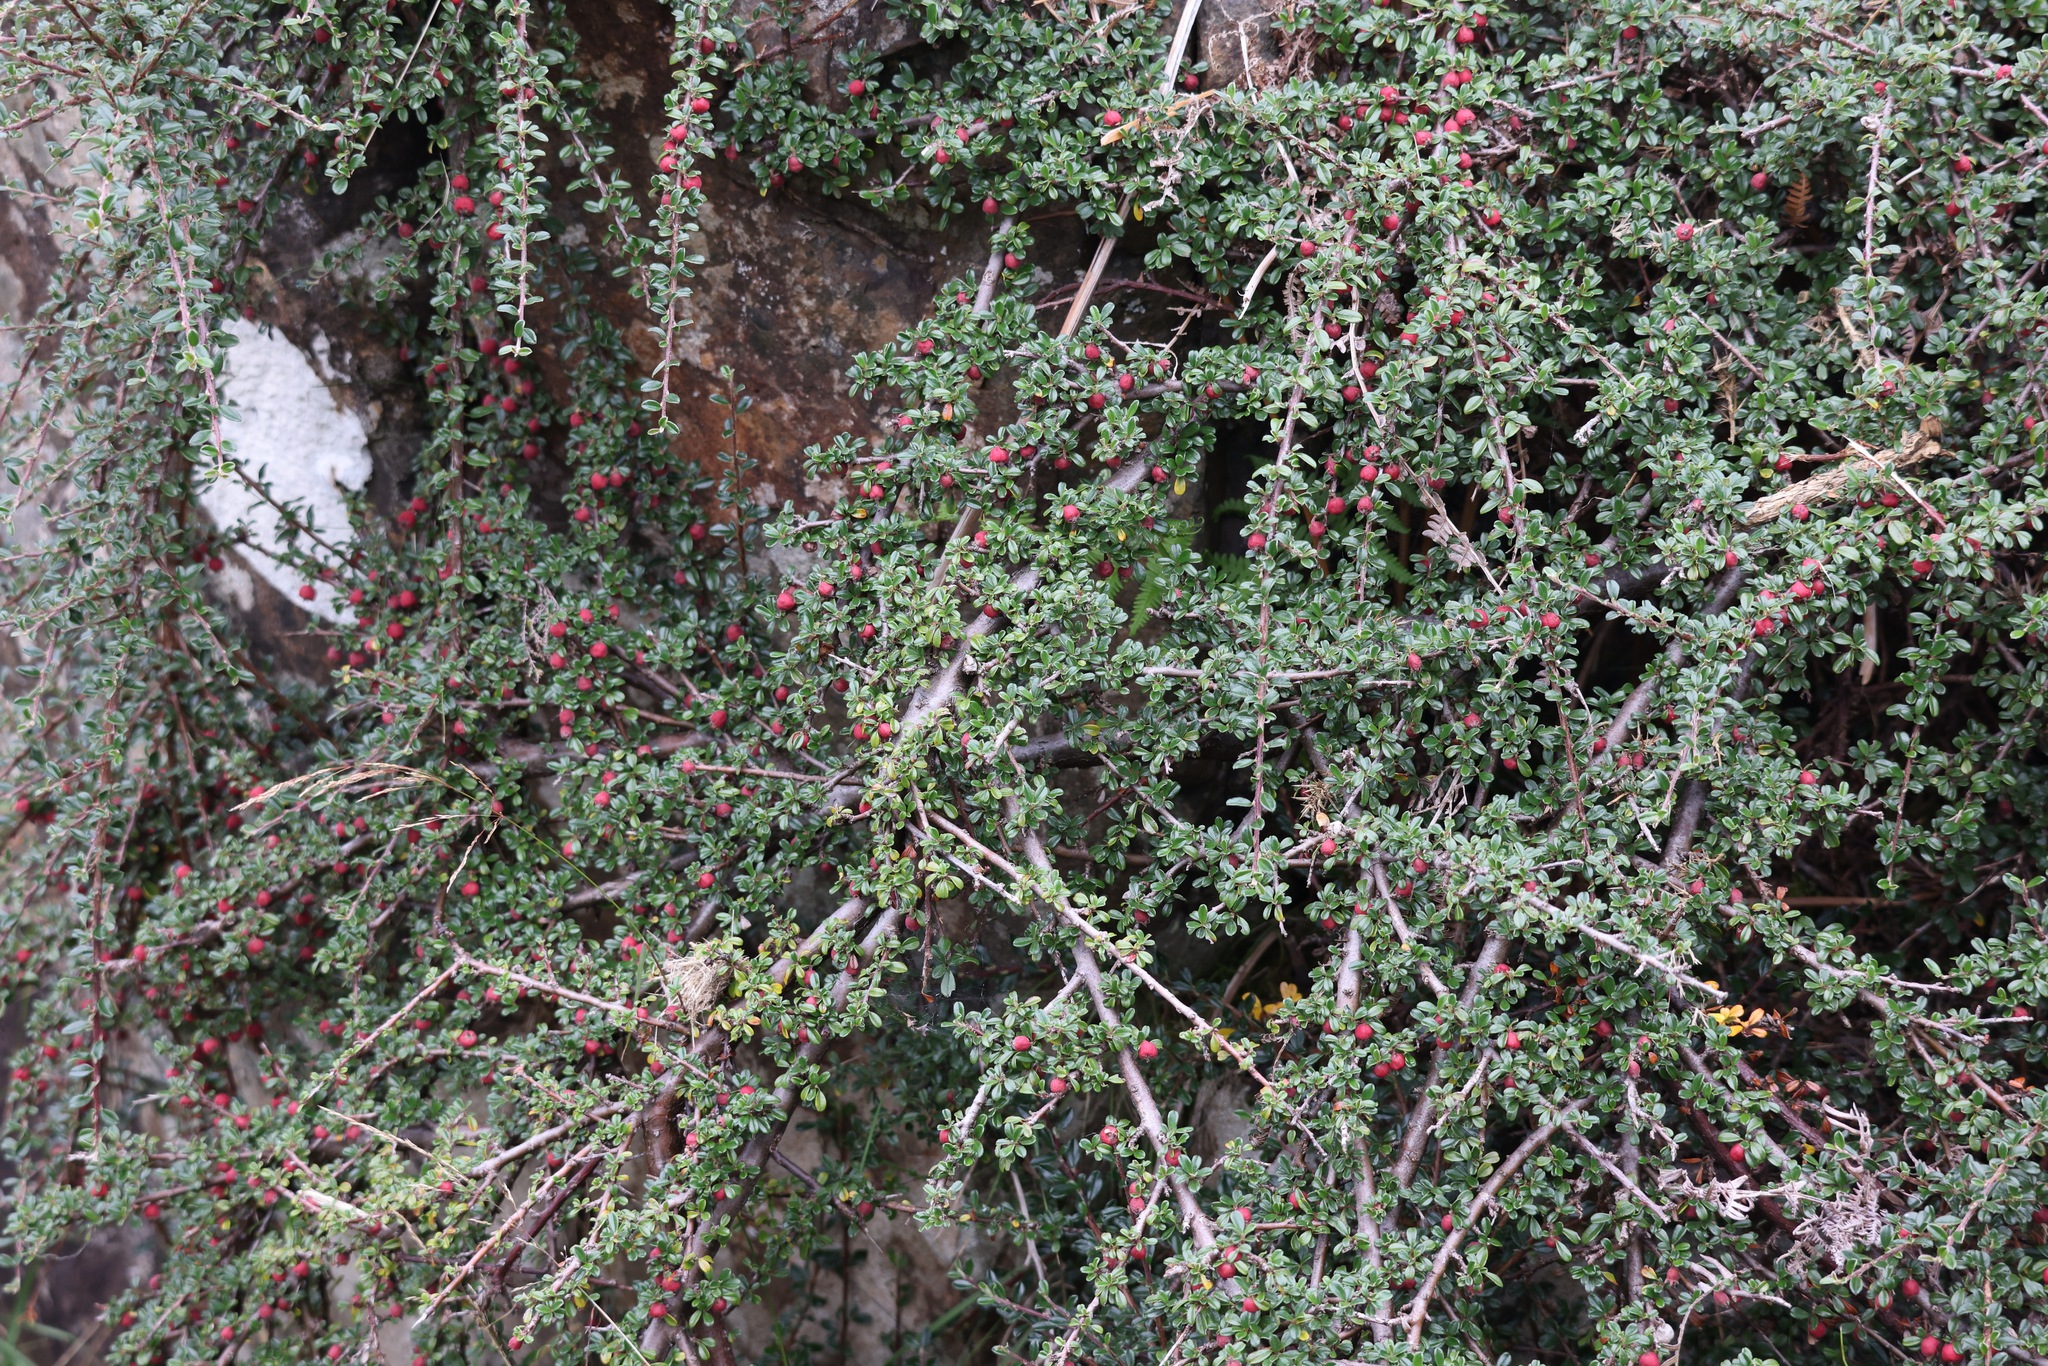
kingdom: Plantae
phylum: Tracheophyta
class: Magnoliopsida
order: Rosales
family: Rosaceae
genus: Cotoneaster
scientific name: Cotoneaster integrifolius
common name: Entire-leaved cotoneaster
